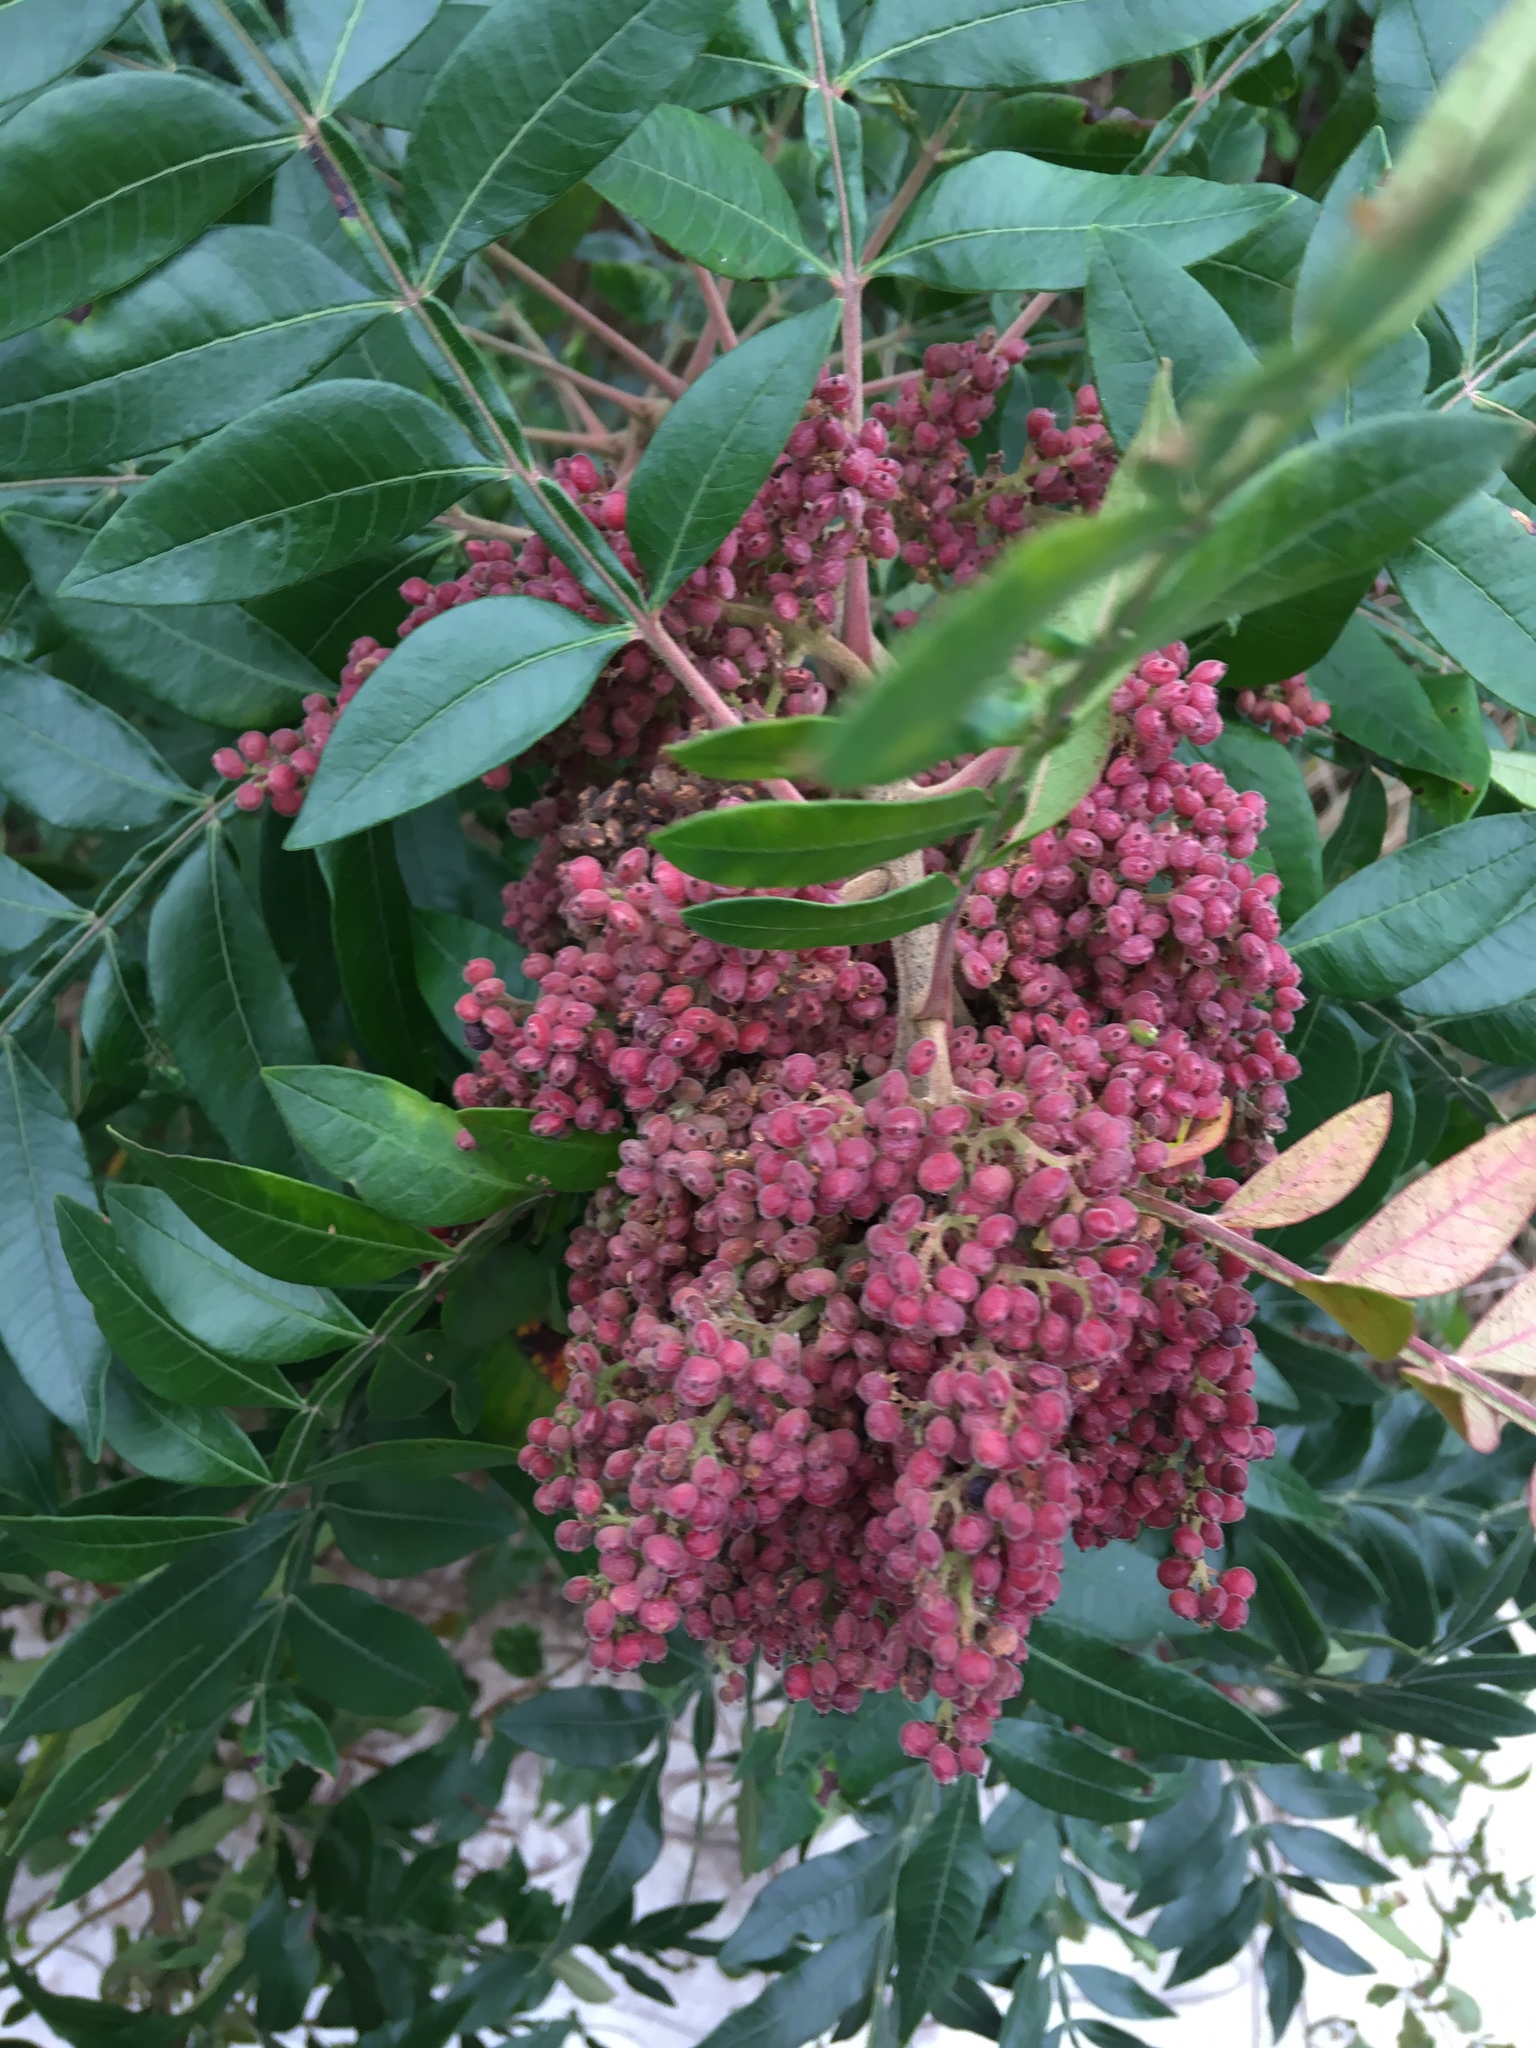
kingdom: Plantae
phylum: Tracheophyta
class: Magnoliopsida
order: Sapindales
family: Anacardiaceae
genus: Rhus
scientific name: Rhus copallina
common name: Shining sumac
